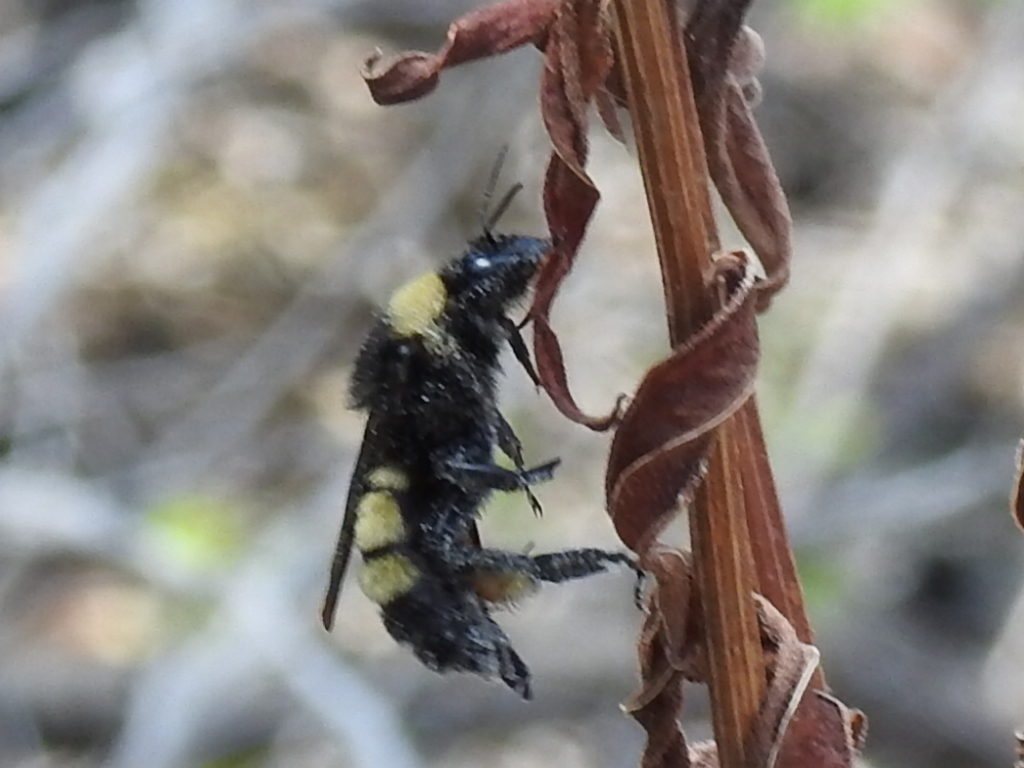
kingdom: Animalia
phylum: Arthropoda
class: Insecta
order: Hymenoptera
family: Apidae
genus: Bombus
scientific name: Bombus pensylvanicus
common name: Bumble bee
